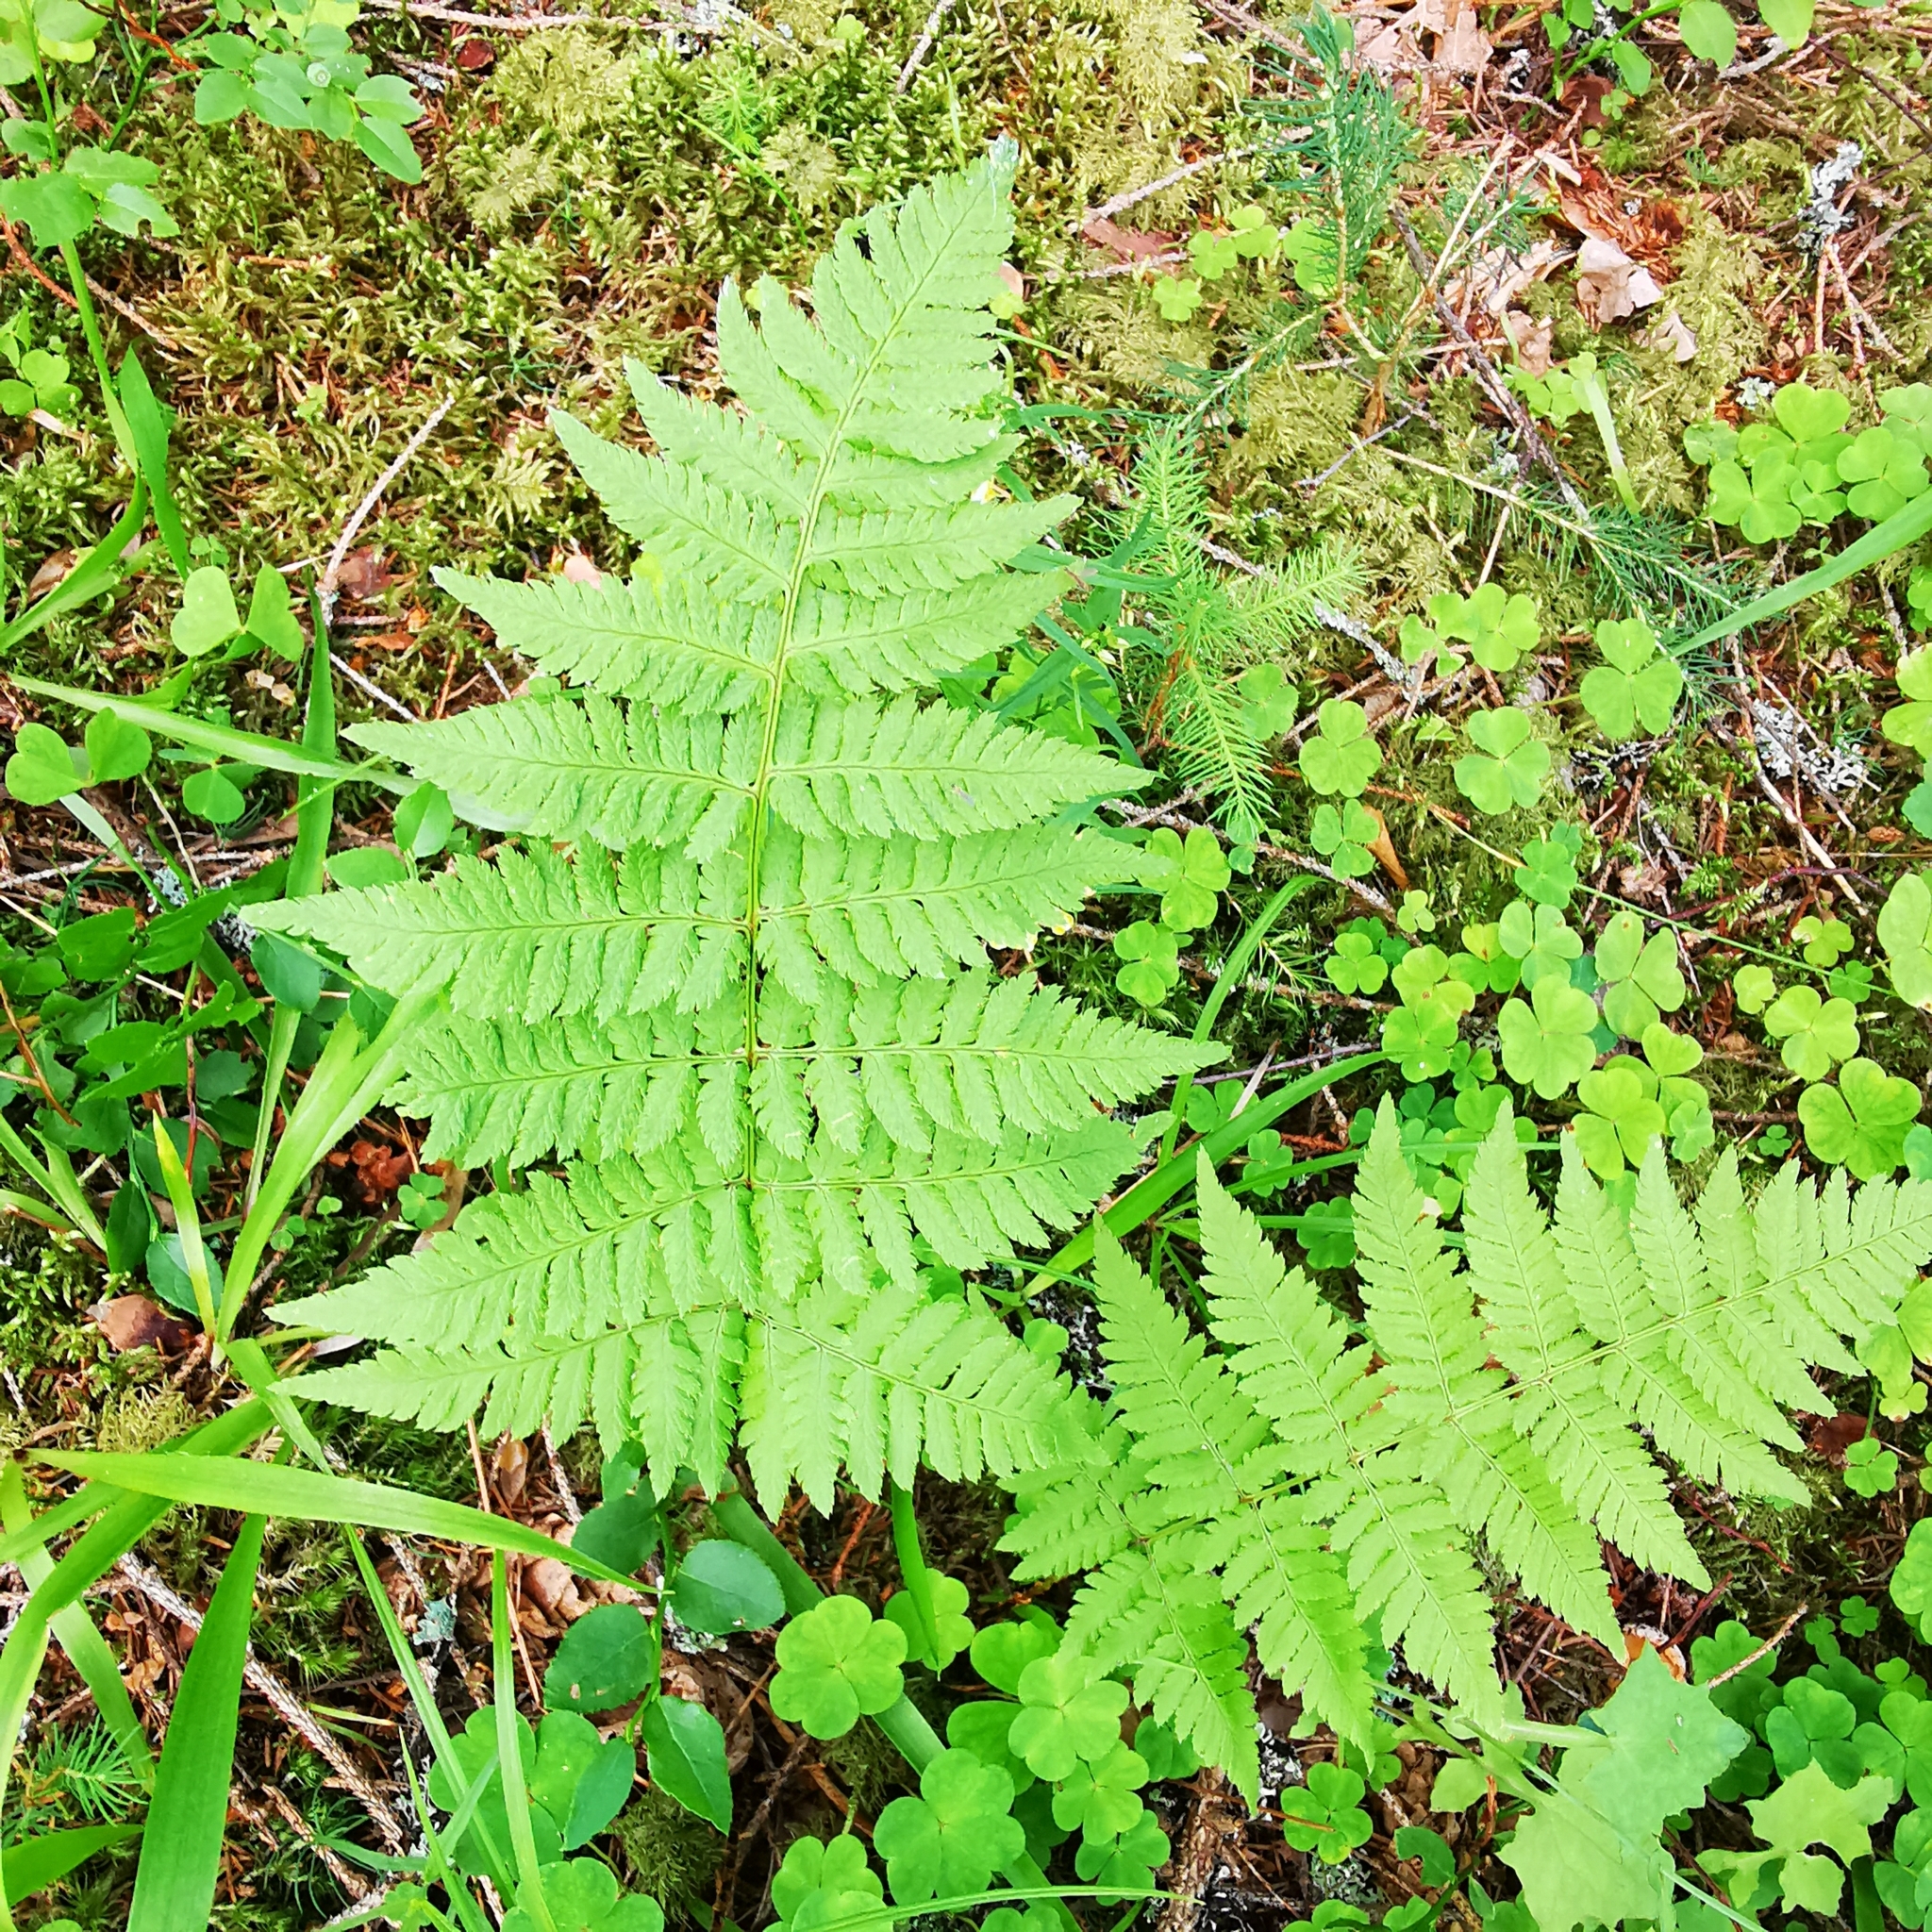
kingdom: Plantae
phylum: Tracheophyta
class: Polypodiopsida
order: Polypodiales
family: Dryopteridaceae
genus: Dryopteris
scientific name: Dryopteris carthusiana
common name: Narrow buckler-fern
